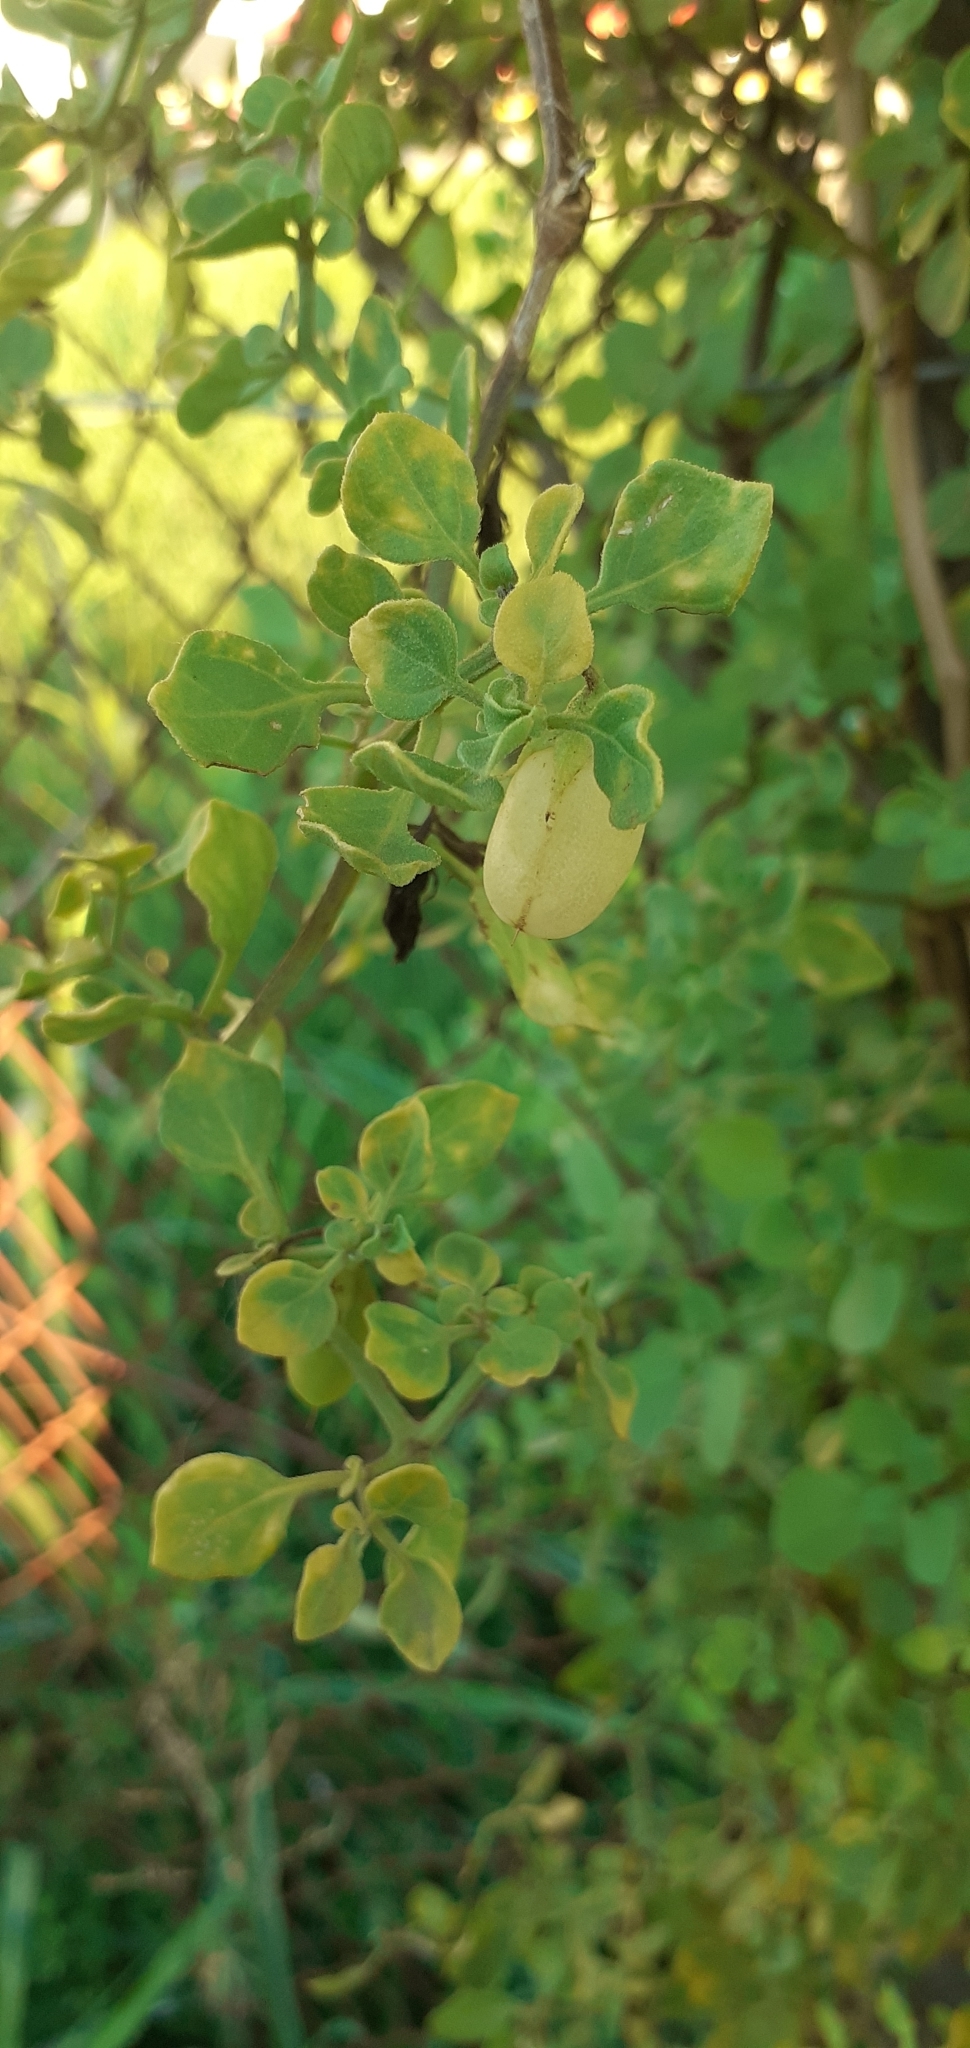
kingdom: Plantae
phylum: Tracheophyta
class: Magnoliopsida
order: Solanales
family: Solanaceae
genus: Salpichroa
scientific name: Salpichroa origanifolia
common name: Lily-of-the-valley-vine
